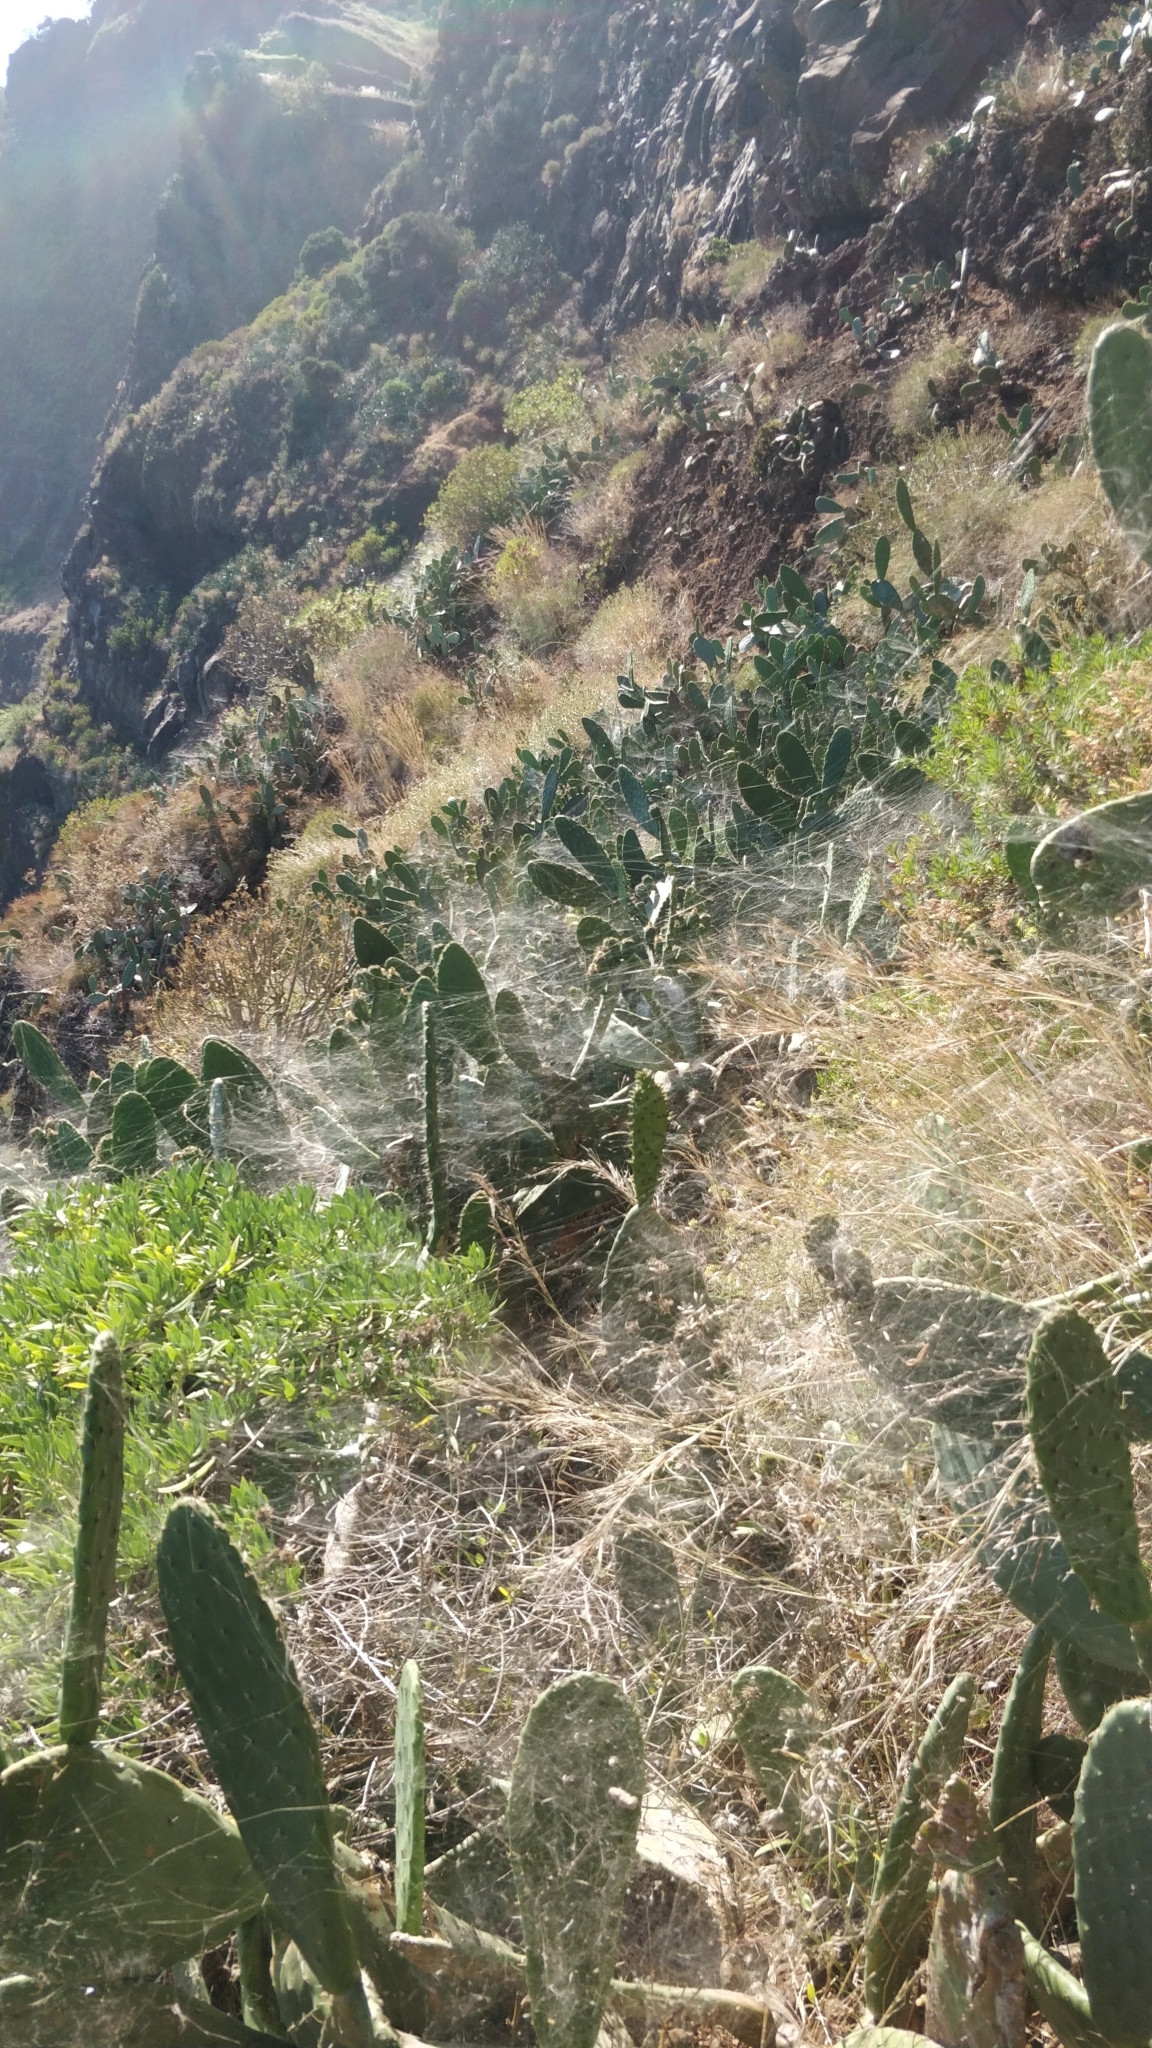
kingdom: Plantae
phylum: Tracheophyta
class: Magnoliopsida
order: Caryophyllales
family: Cactaceae
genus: Opuntia
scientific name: Opuntia ficus-indica
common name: Barbary fig
